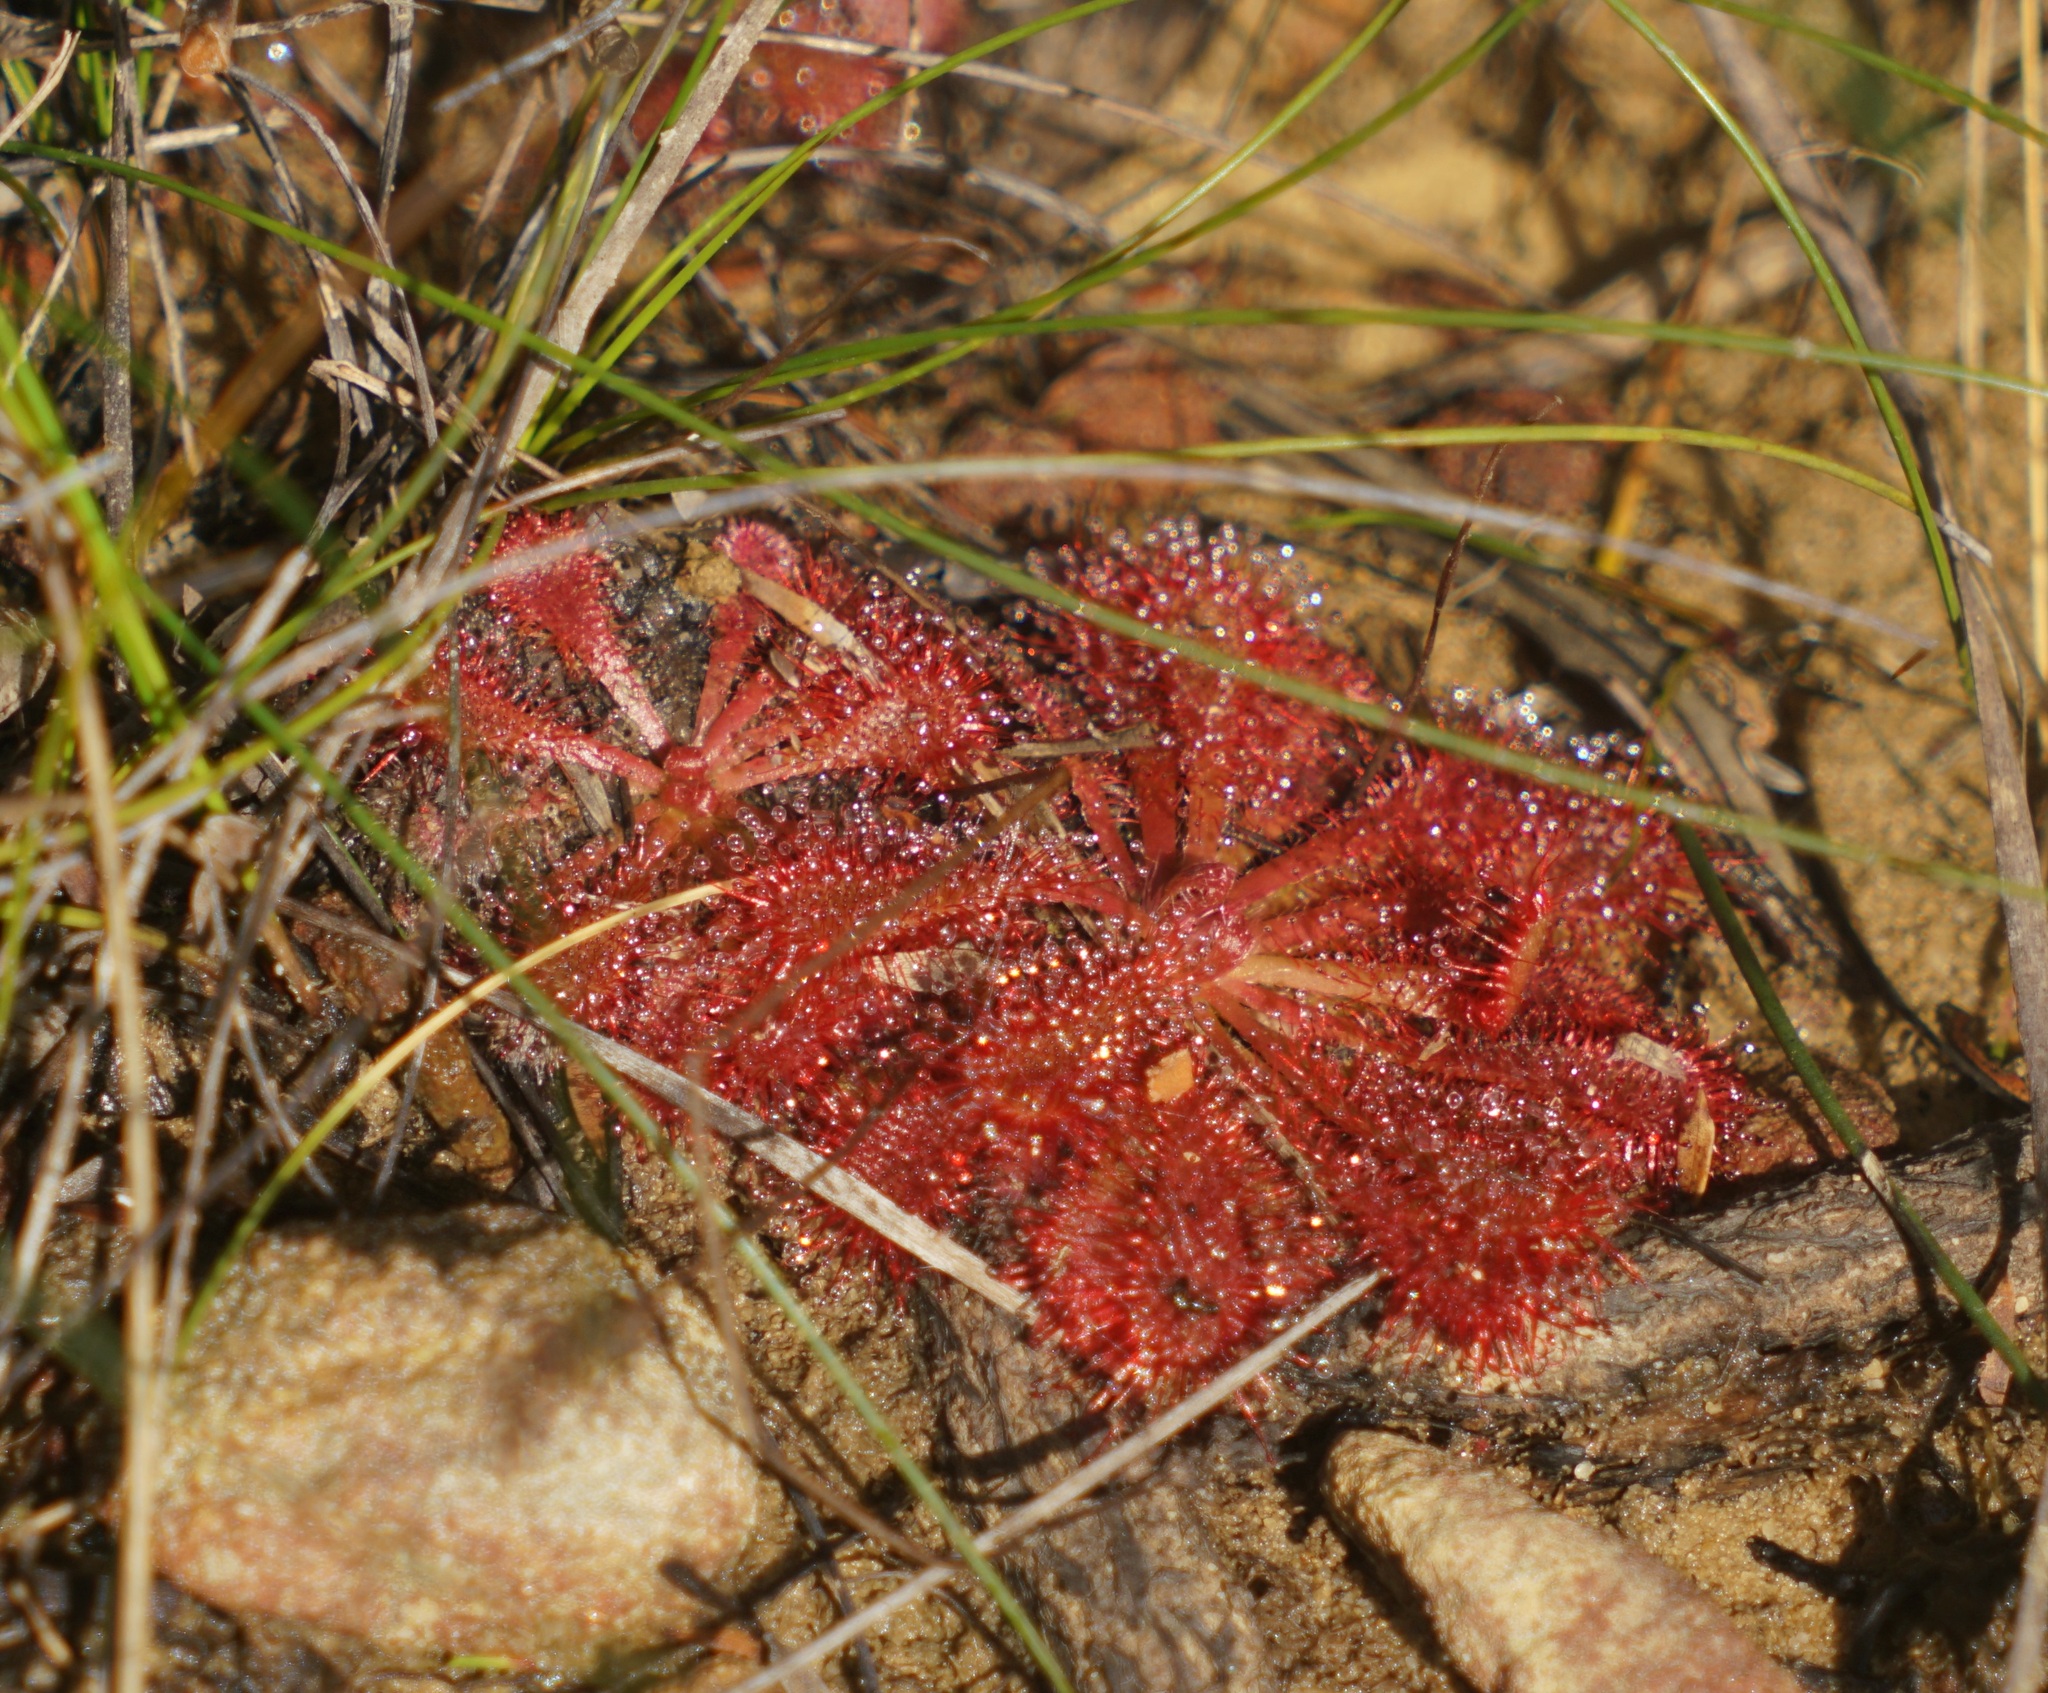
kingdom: Plantae
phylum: Tracheophyta
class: Magnoliopsida
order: Caryophyllales
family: Droseraceae
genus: Drosera
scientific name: Drosera spatulata
